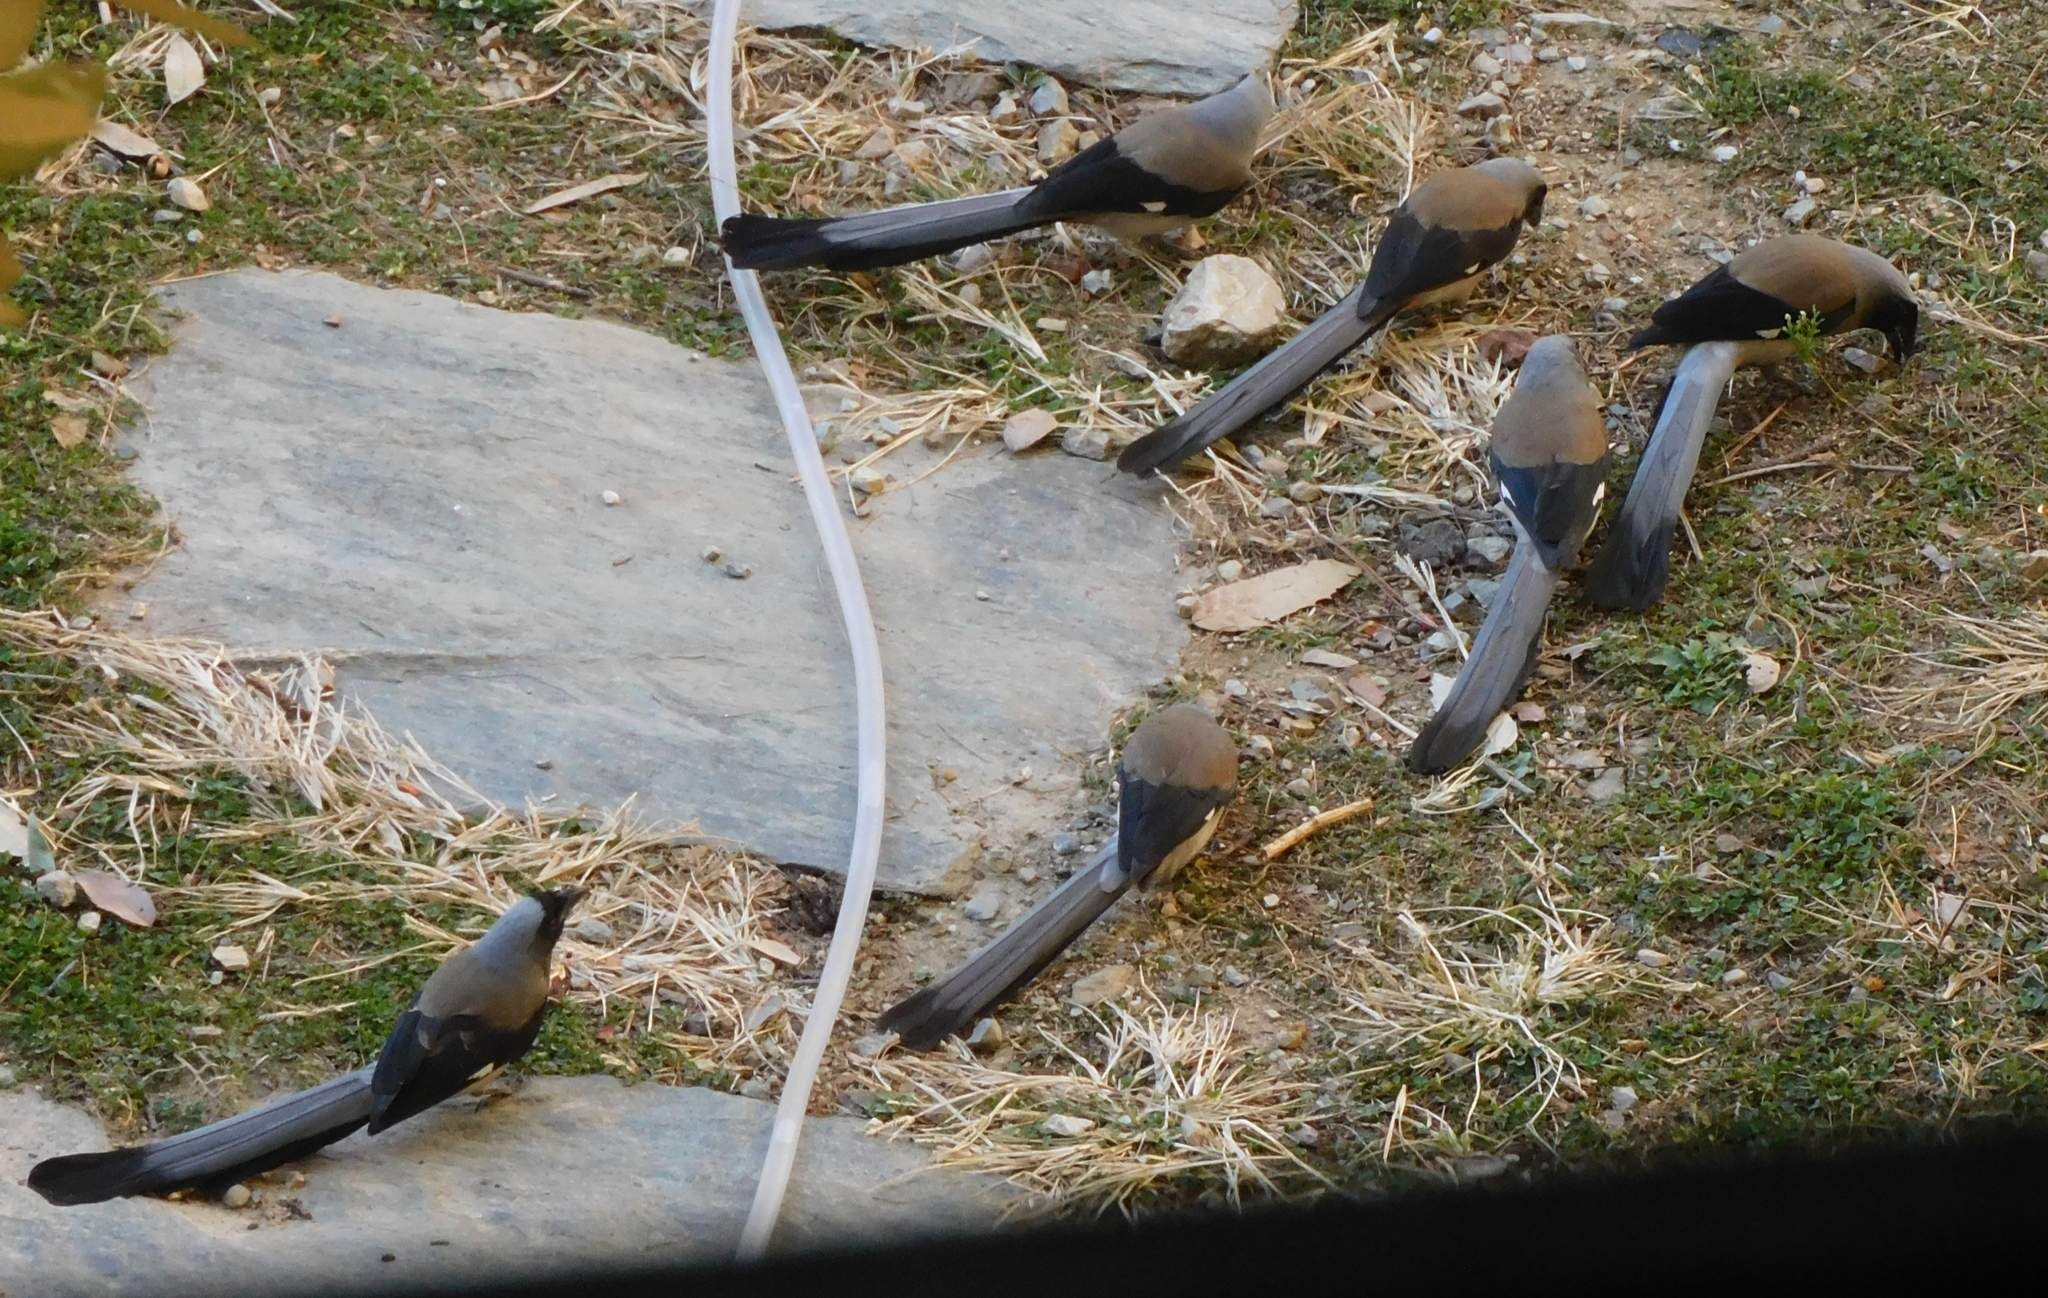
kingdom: Animalia
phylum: Chordata
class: Aves
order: Passeriformes
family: Corvidae
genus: Dendrocitta
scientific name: Dendrocitta formosae
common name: Grey treepie
